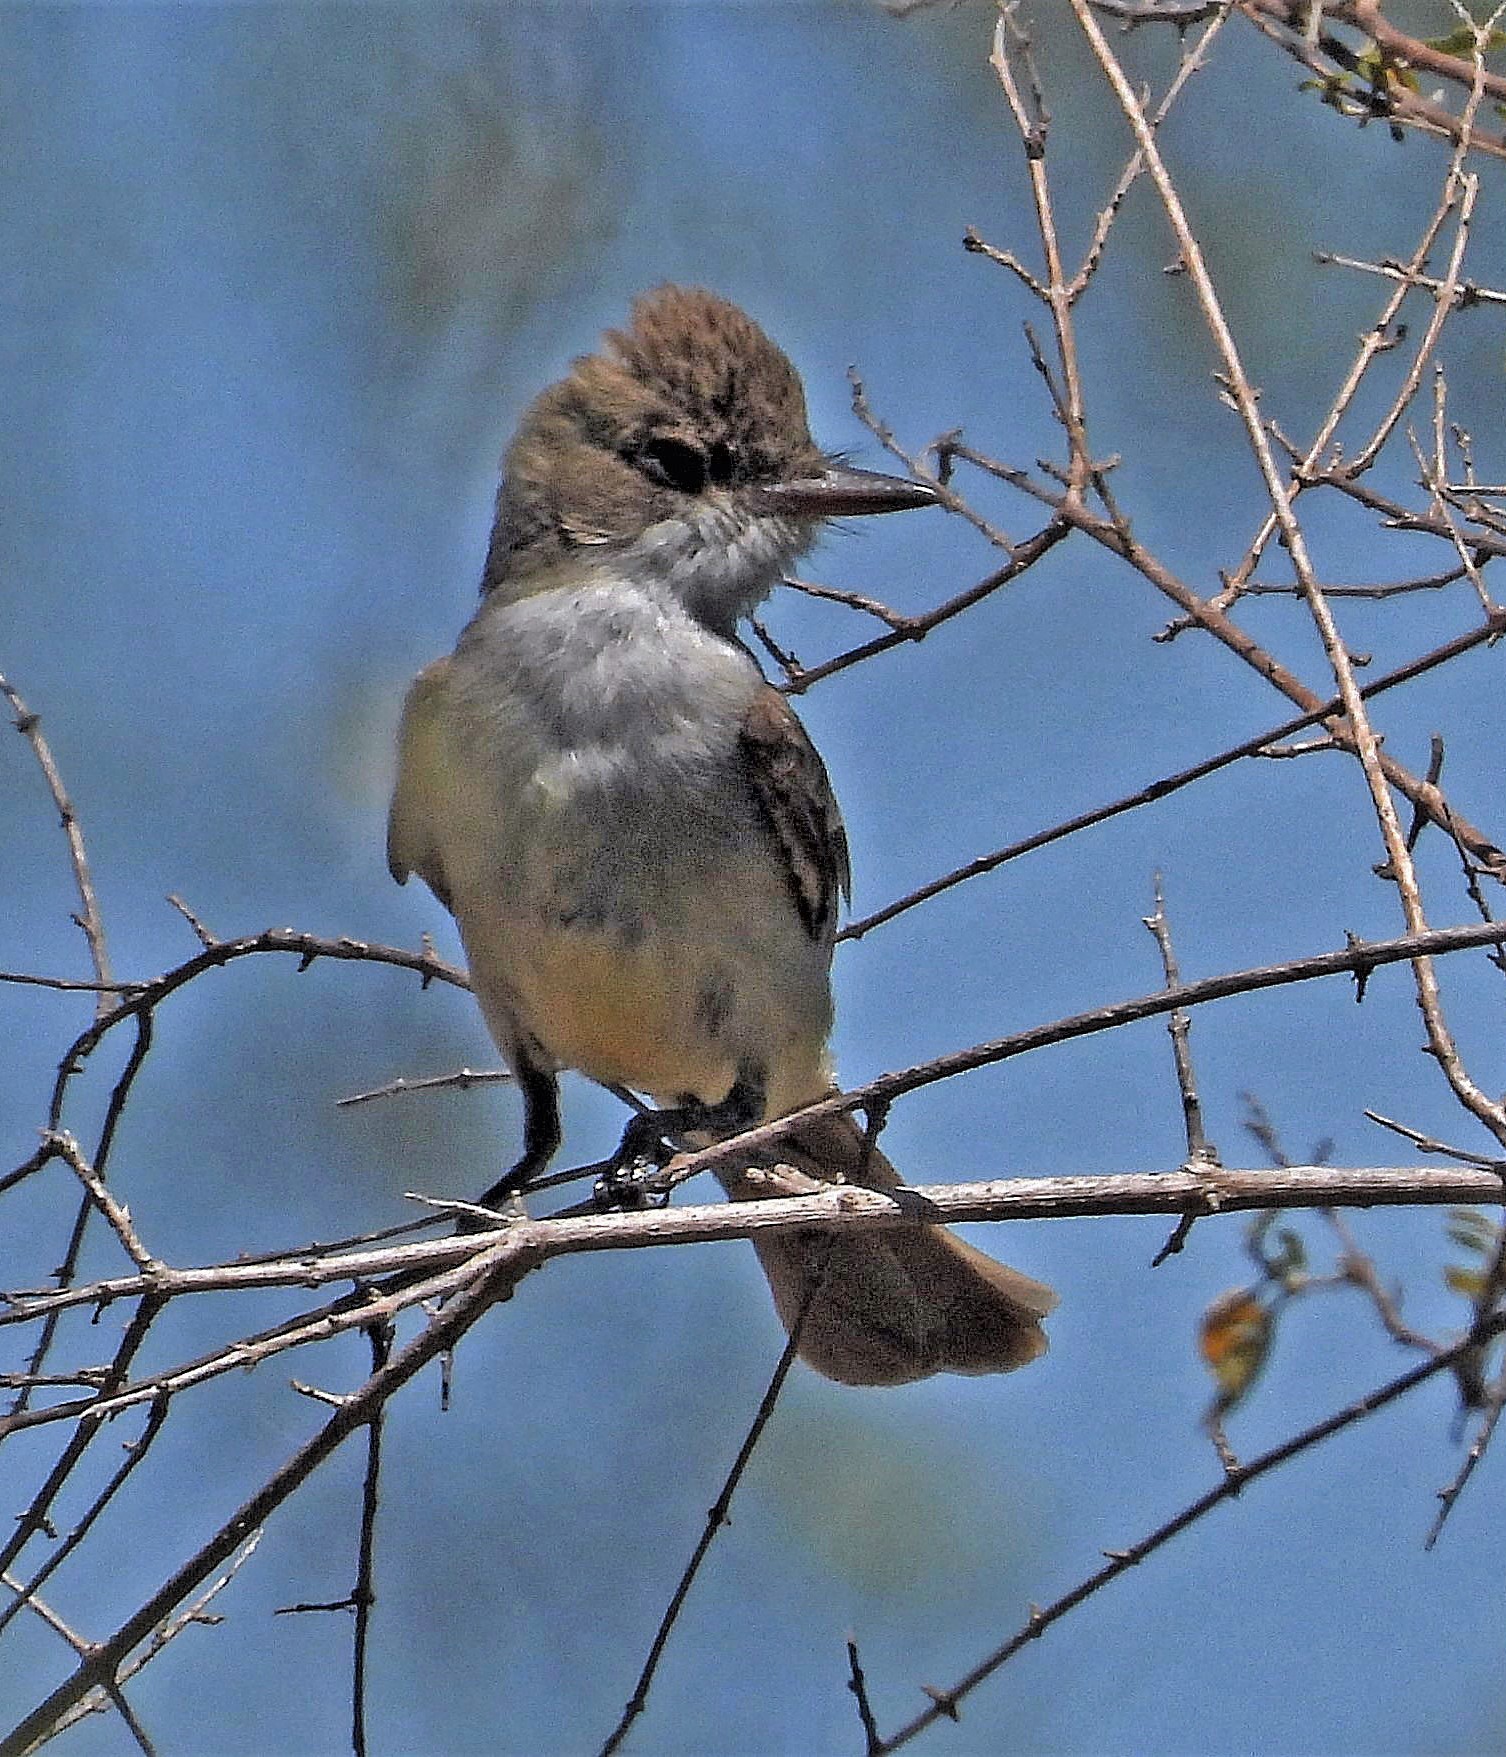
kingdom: Animalia
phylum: Chordata
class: Aves
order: Passeriformes
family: Tyrannidae
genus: Myiarchus
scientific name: Myiarchus swainsoni
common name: Swainson's flycatcher
